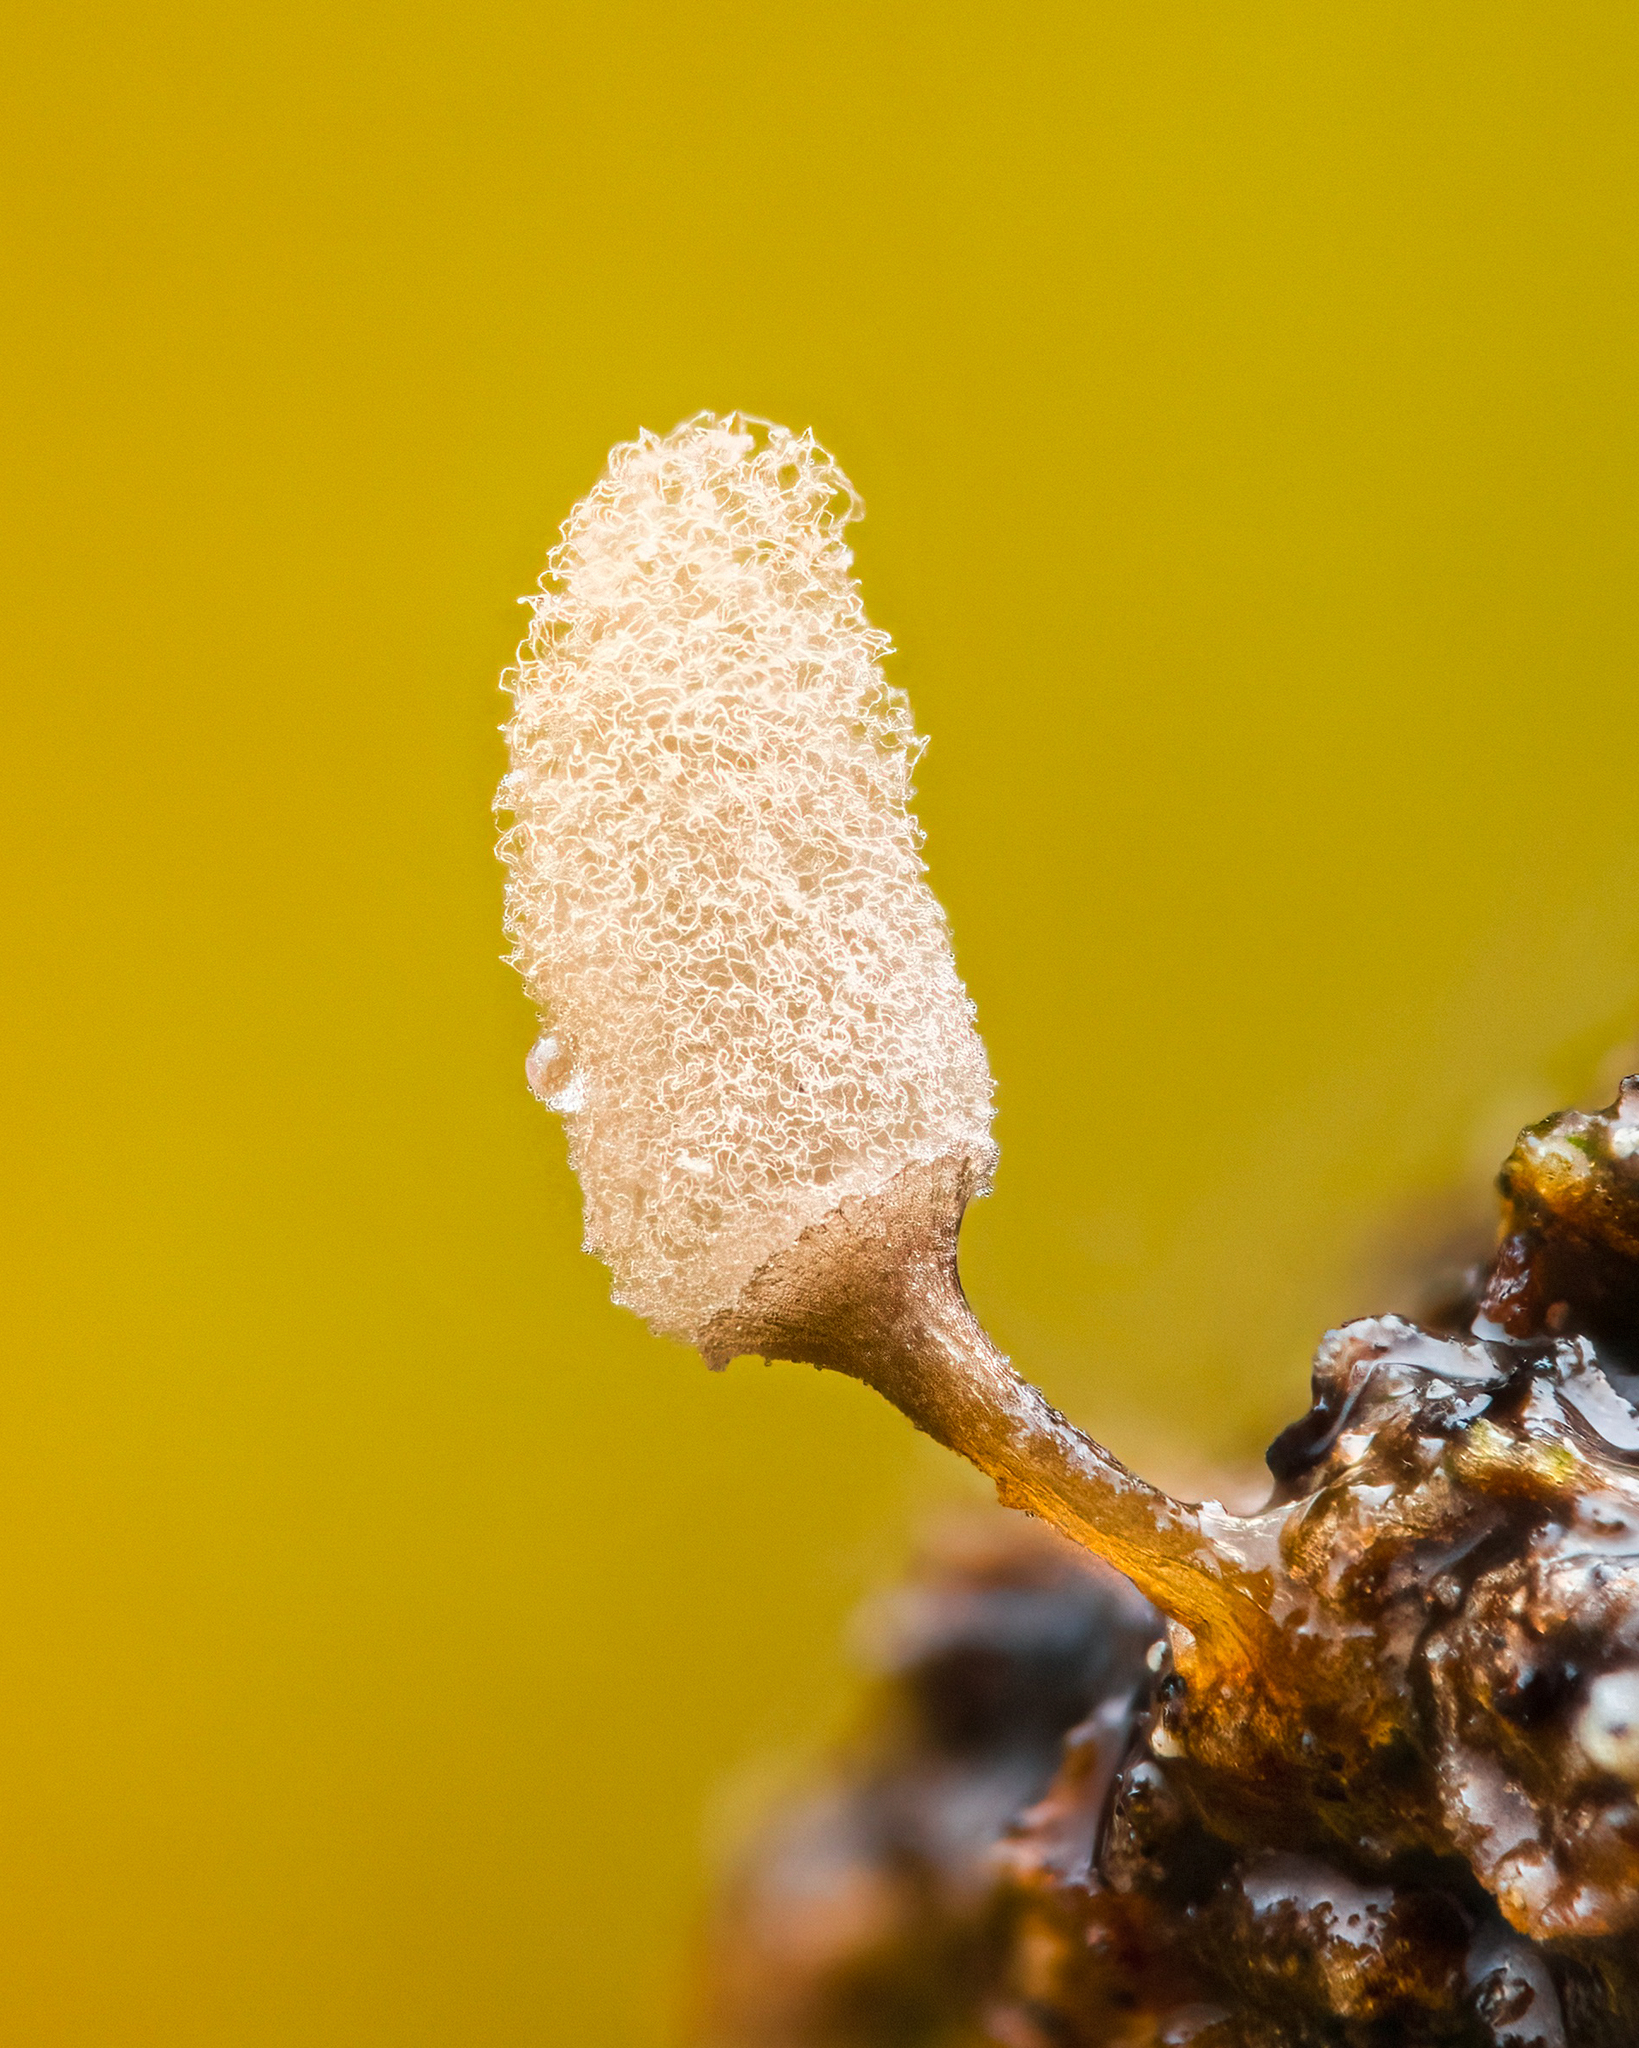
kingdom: Protozoa
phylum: Mycetozoa
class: Myxomycetes
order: Trichiales
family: Arcyriaceae
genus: Arcyria
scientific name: Arcyria cinerea
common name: White carnival candy slime mold
